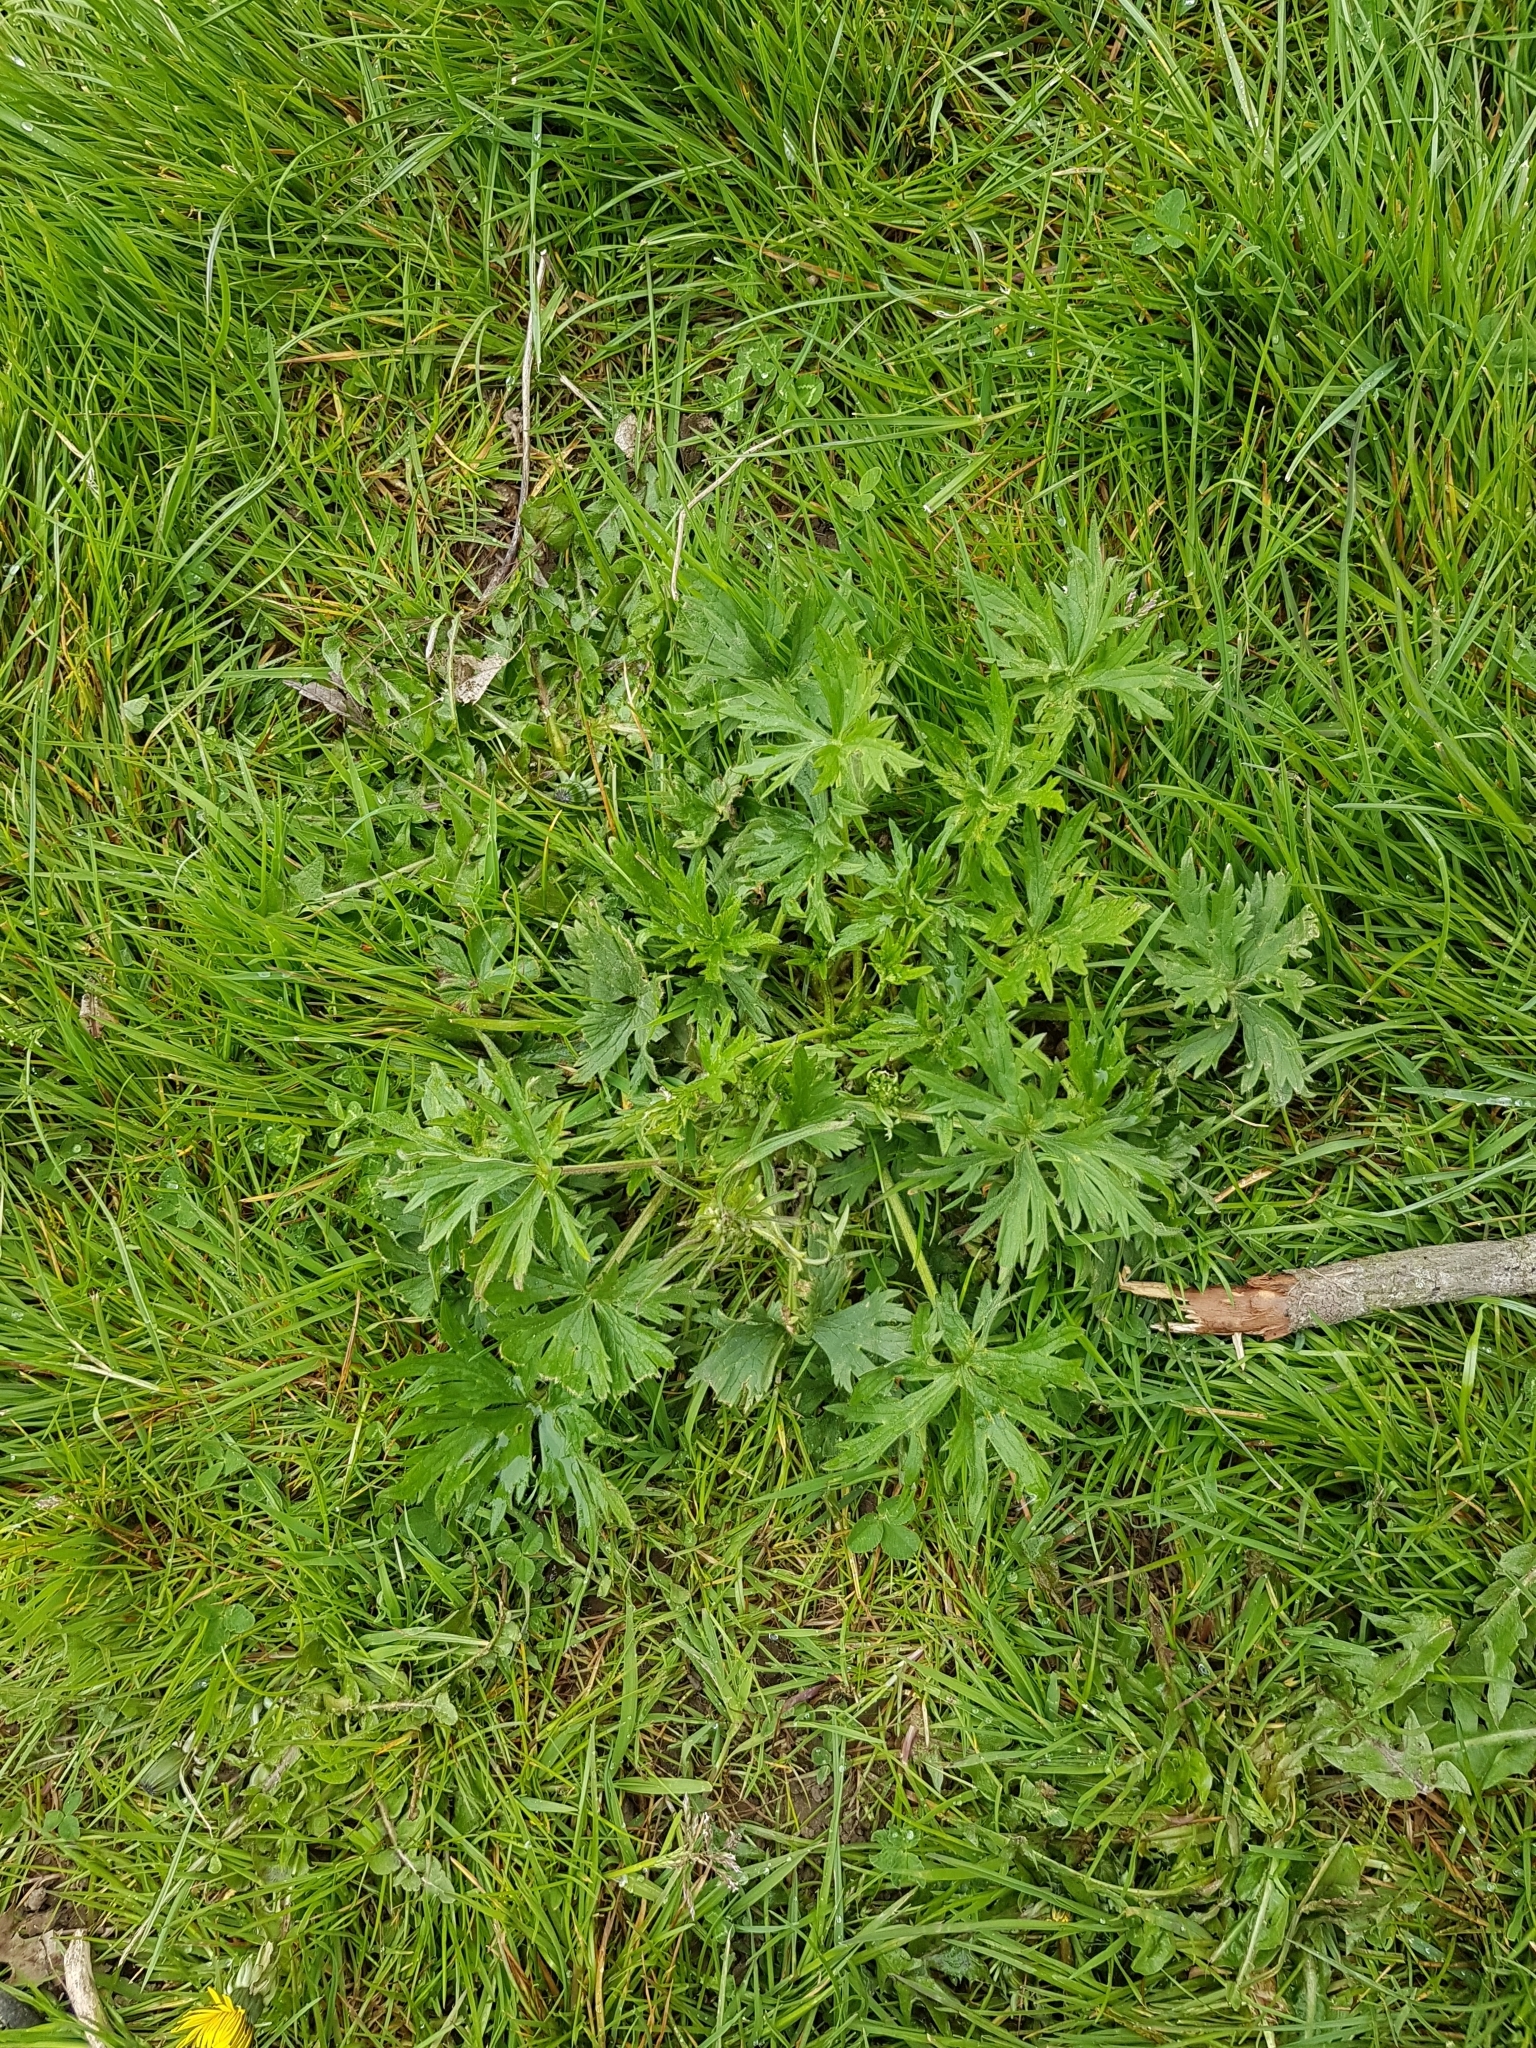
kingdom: Plantae
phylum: Tracheophyta
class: Magnoliopsida
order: Ranunculales
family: Ranunculaceae
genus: Ranunculus
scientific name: Ranunculus acris
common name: Meadow buttercup
